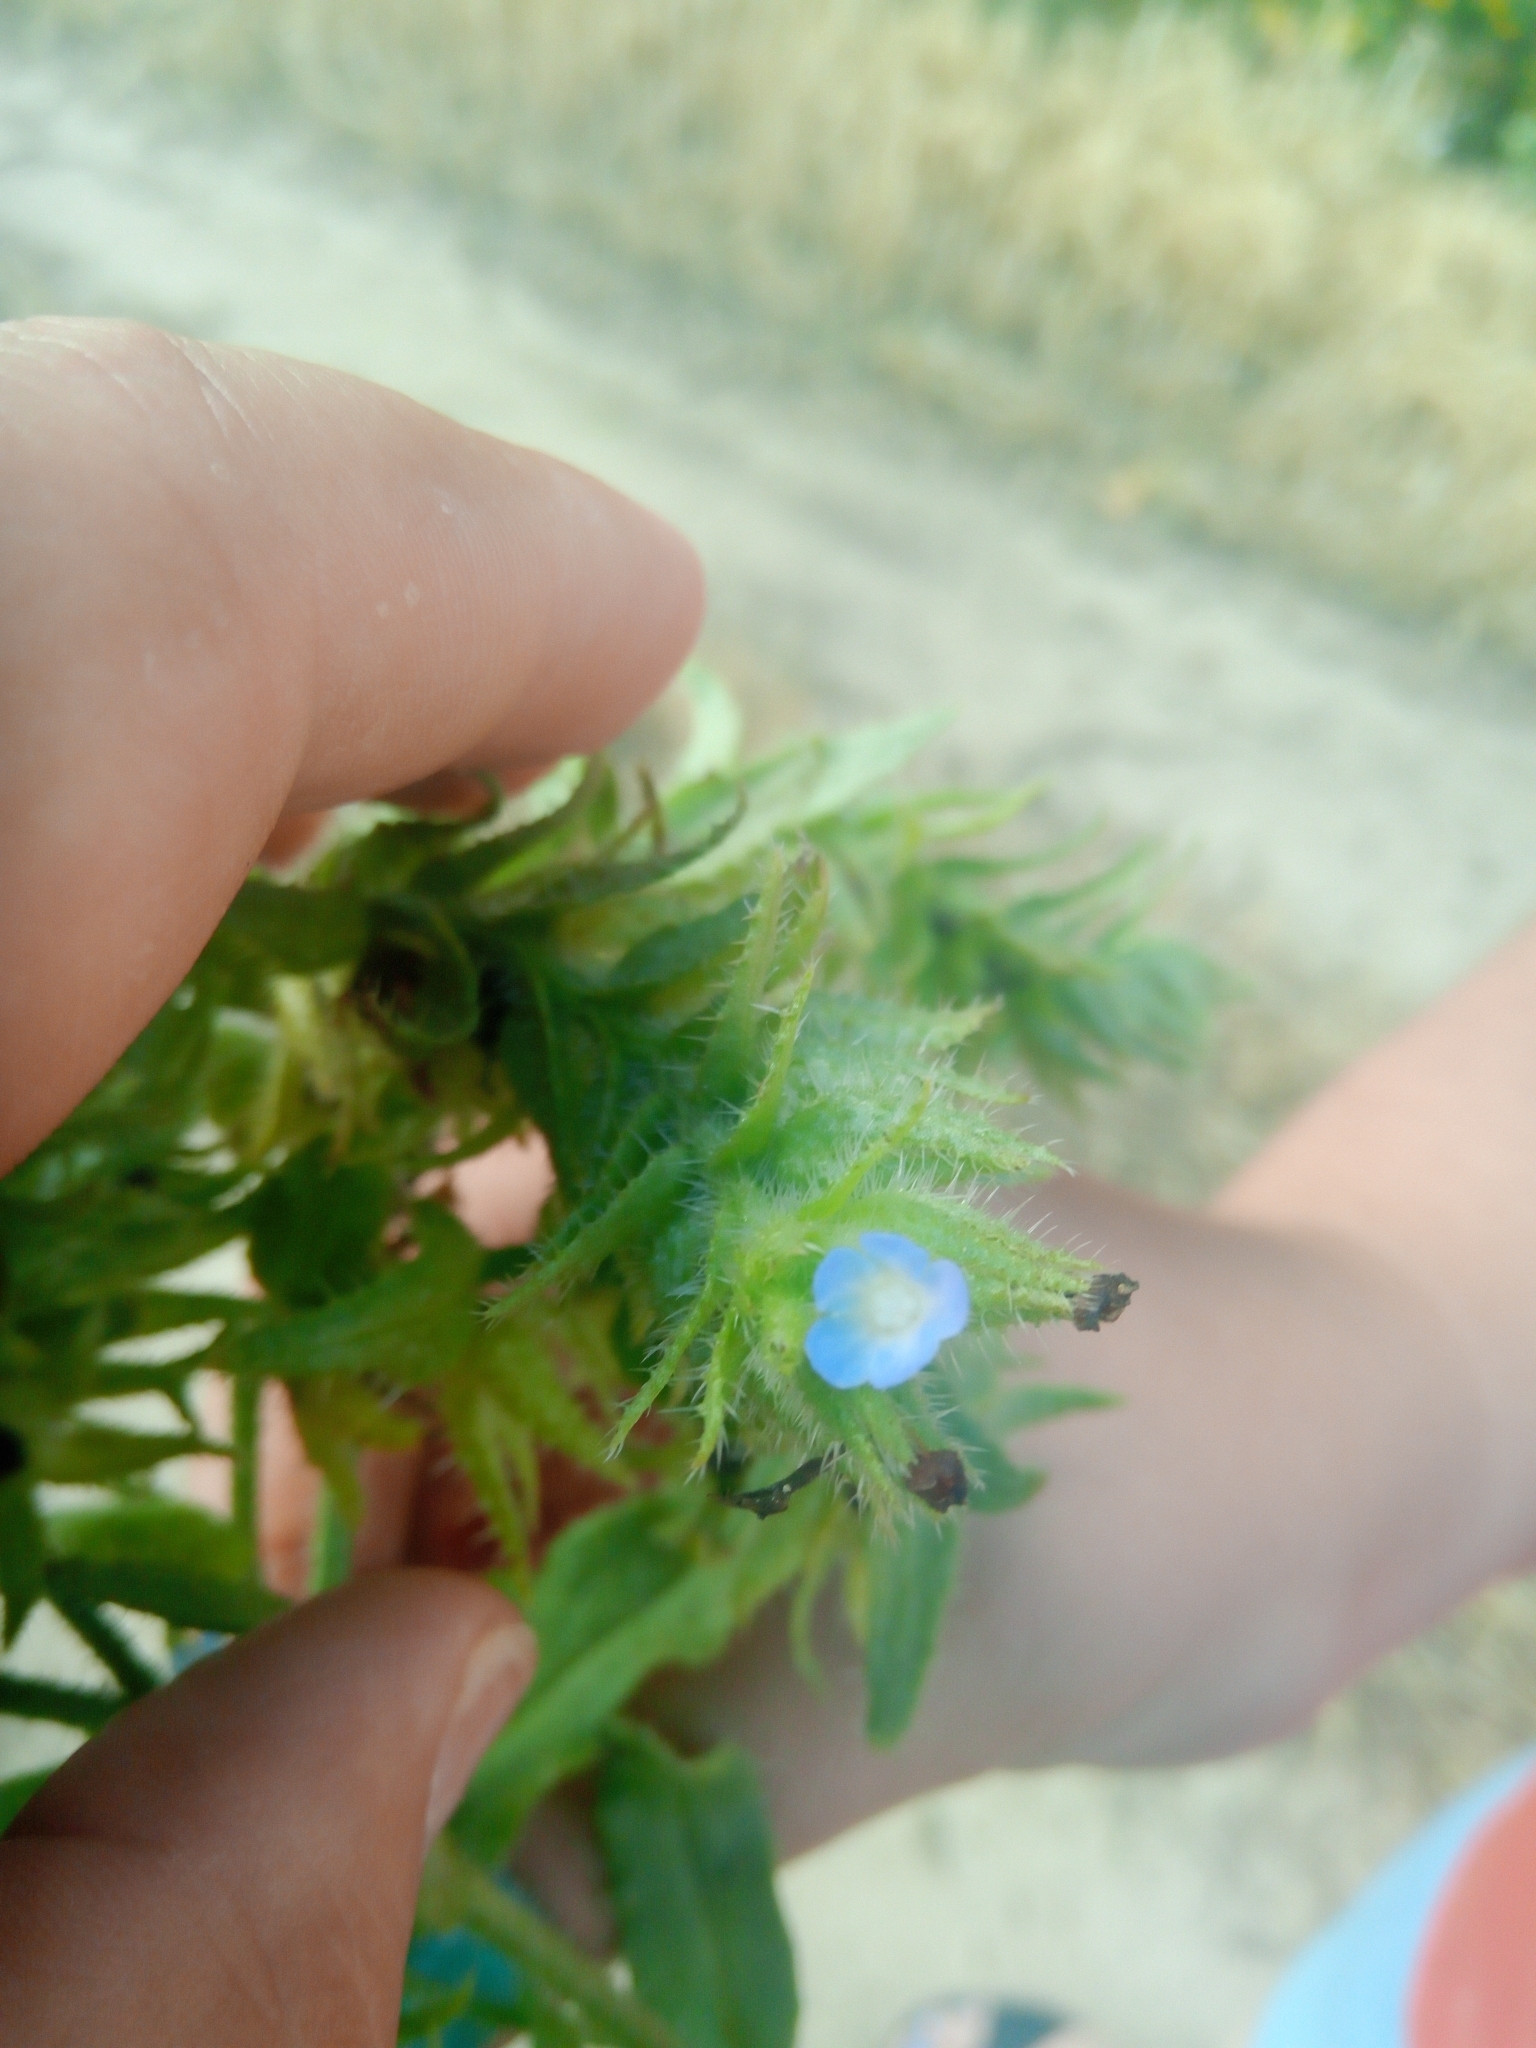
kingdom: Plantae
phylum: Tracheophyta
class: Magnoliopsida
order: Boraginales
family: Boraginaceae
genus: Lycopsis
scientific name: Lycopsis arvensis
